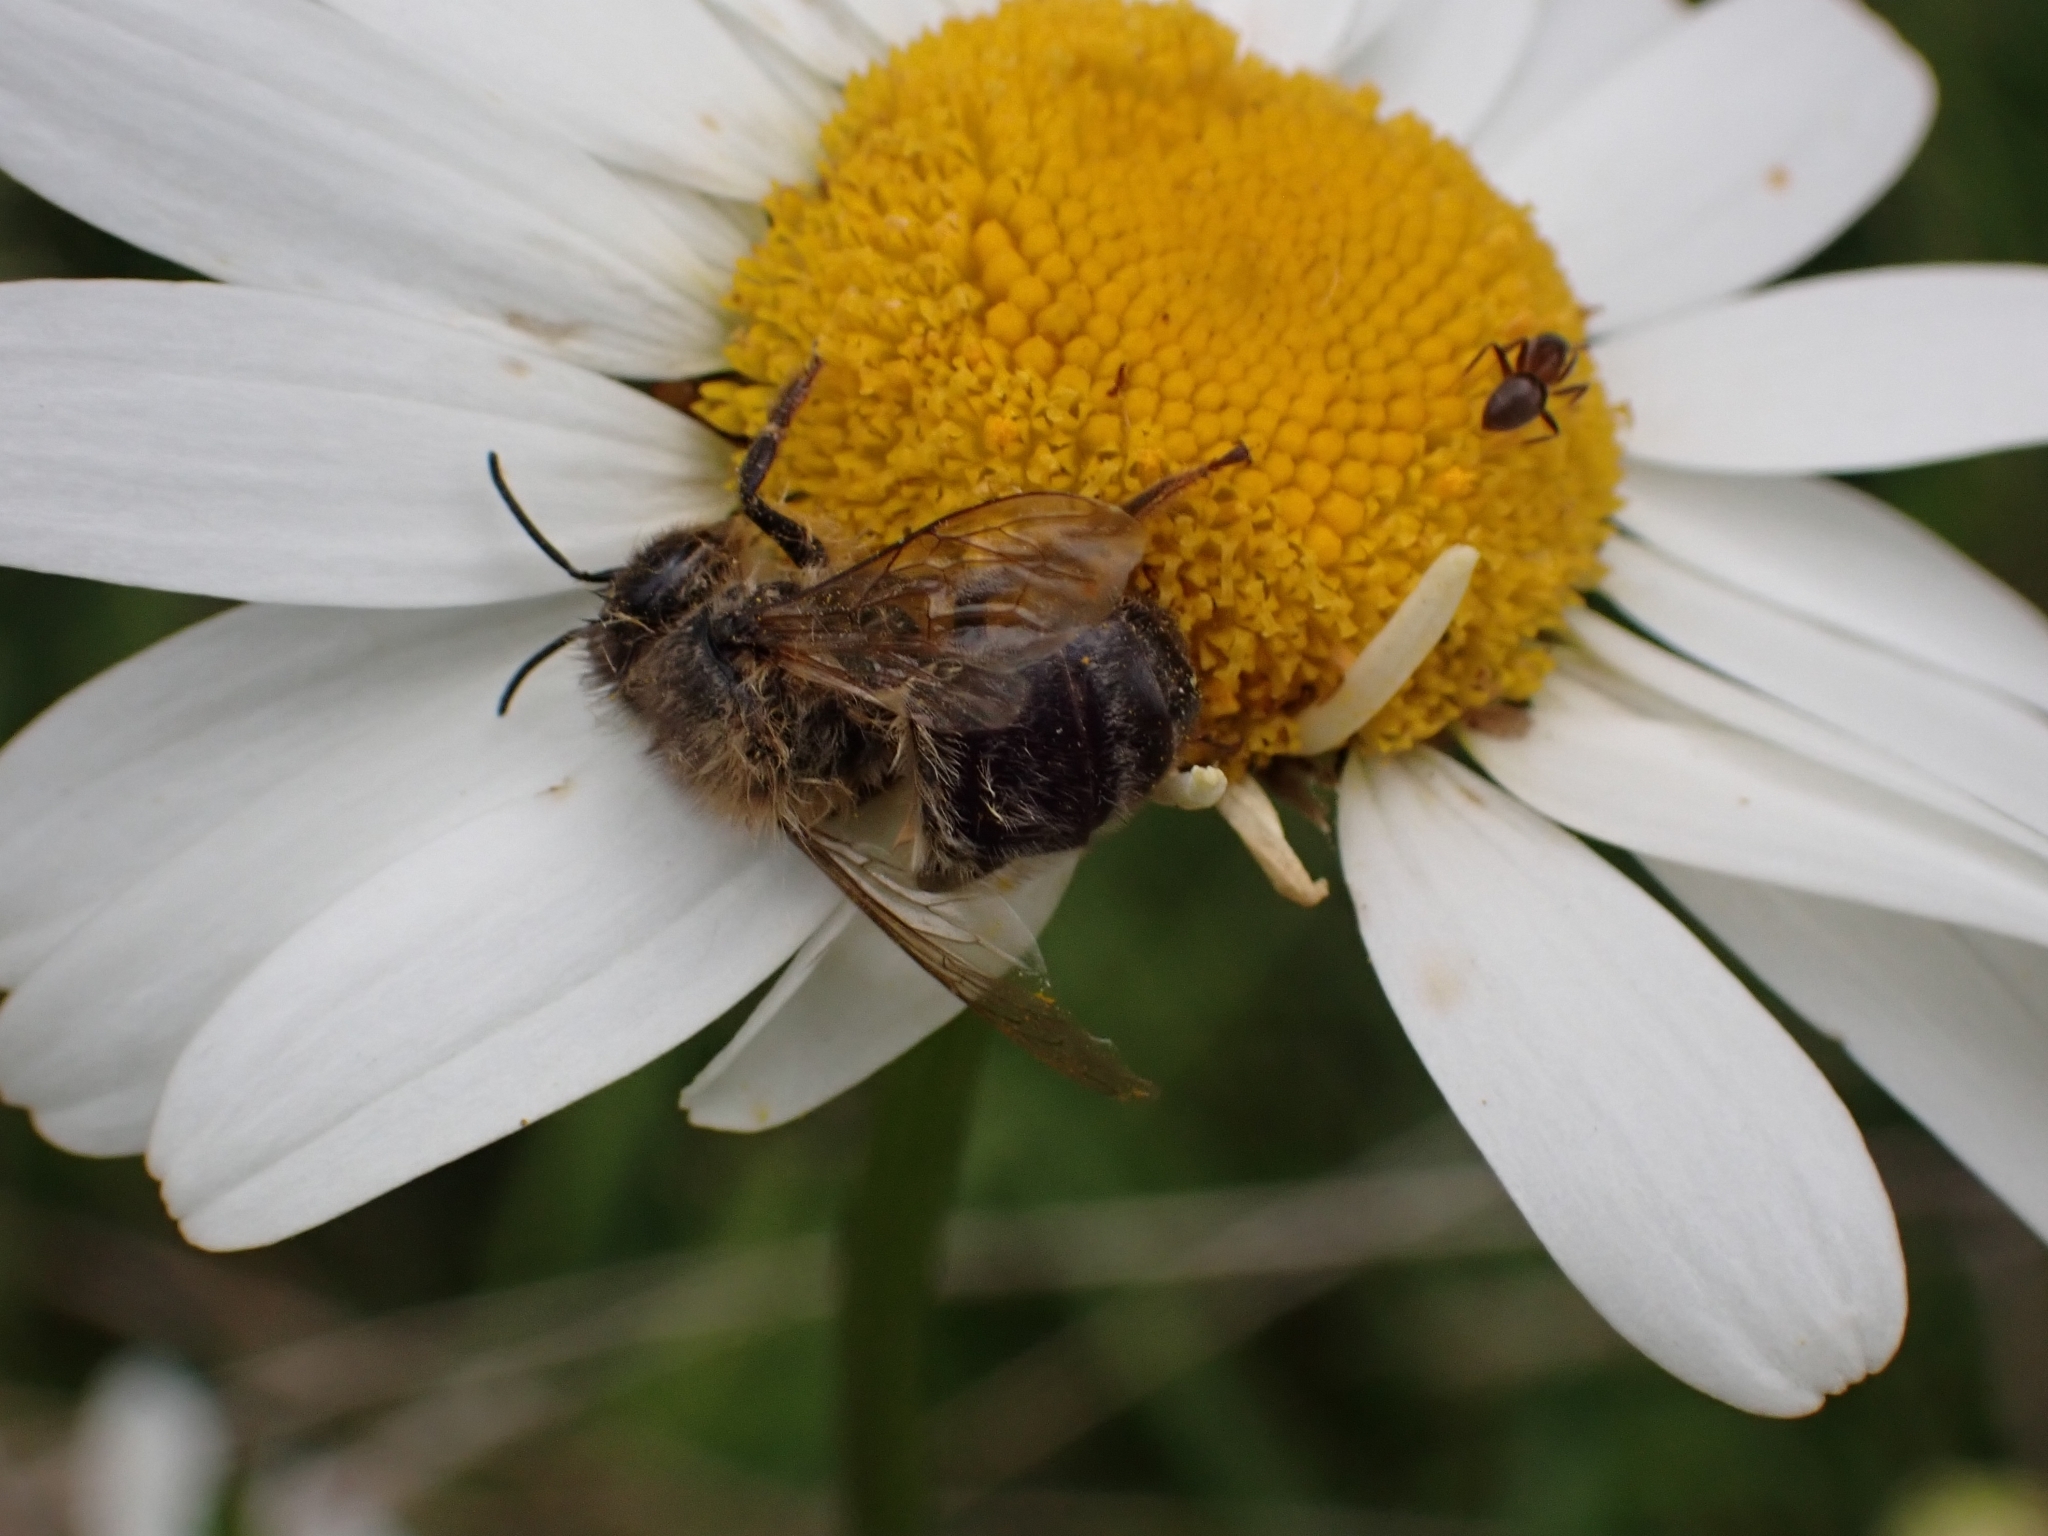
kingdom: Animalia
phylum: Arthropoda
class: Insecta
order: Hymenoptera
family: Apidae
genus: Apis
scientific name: Apis mellifera
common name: Honey bee
